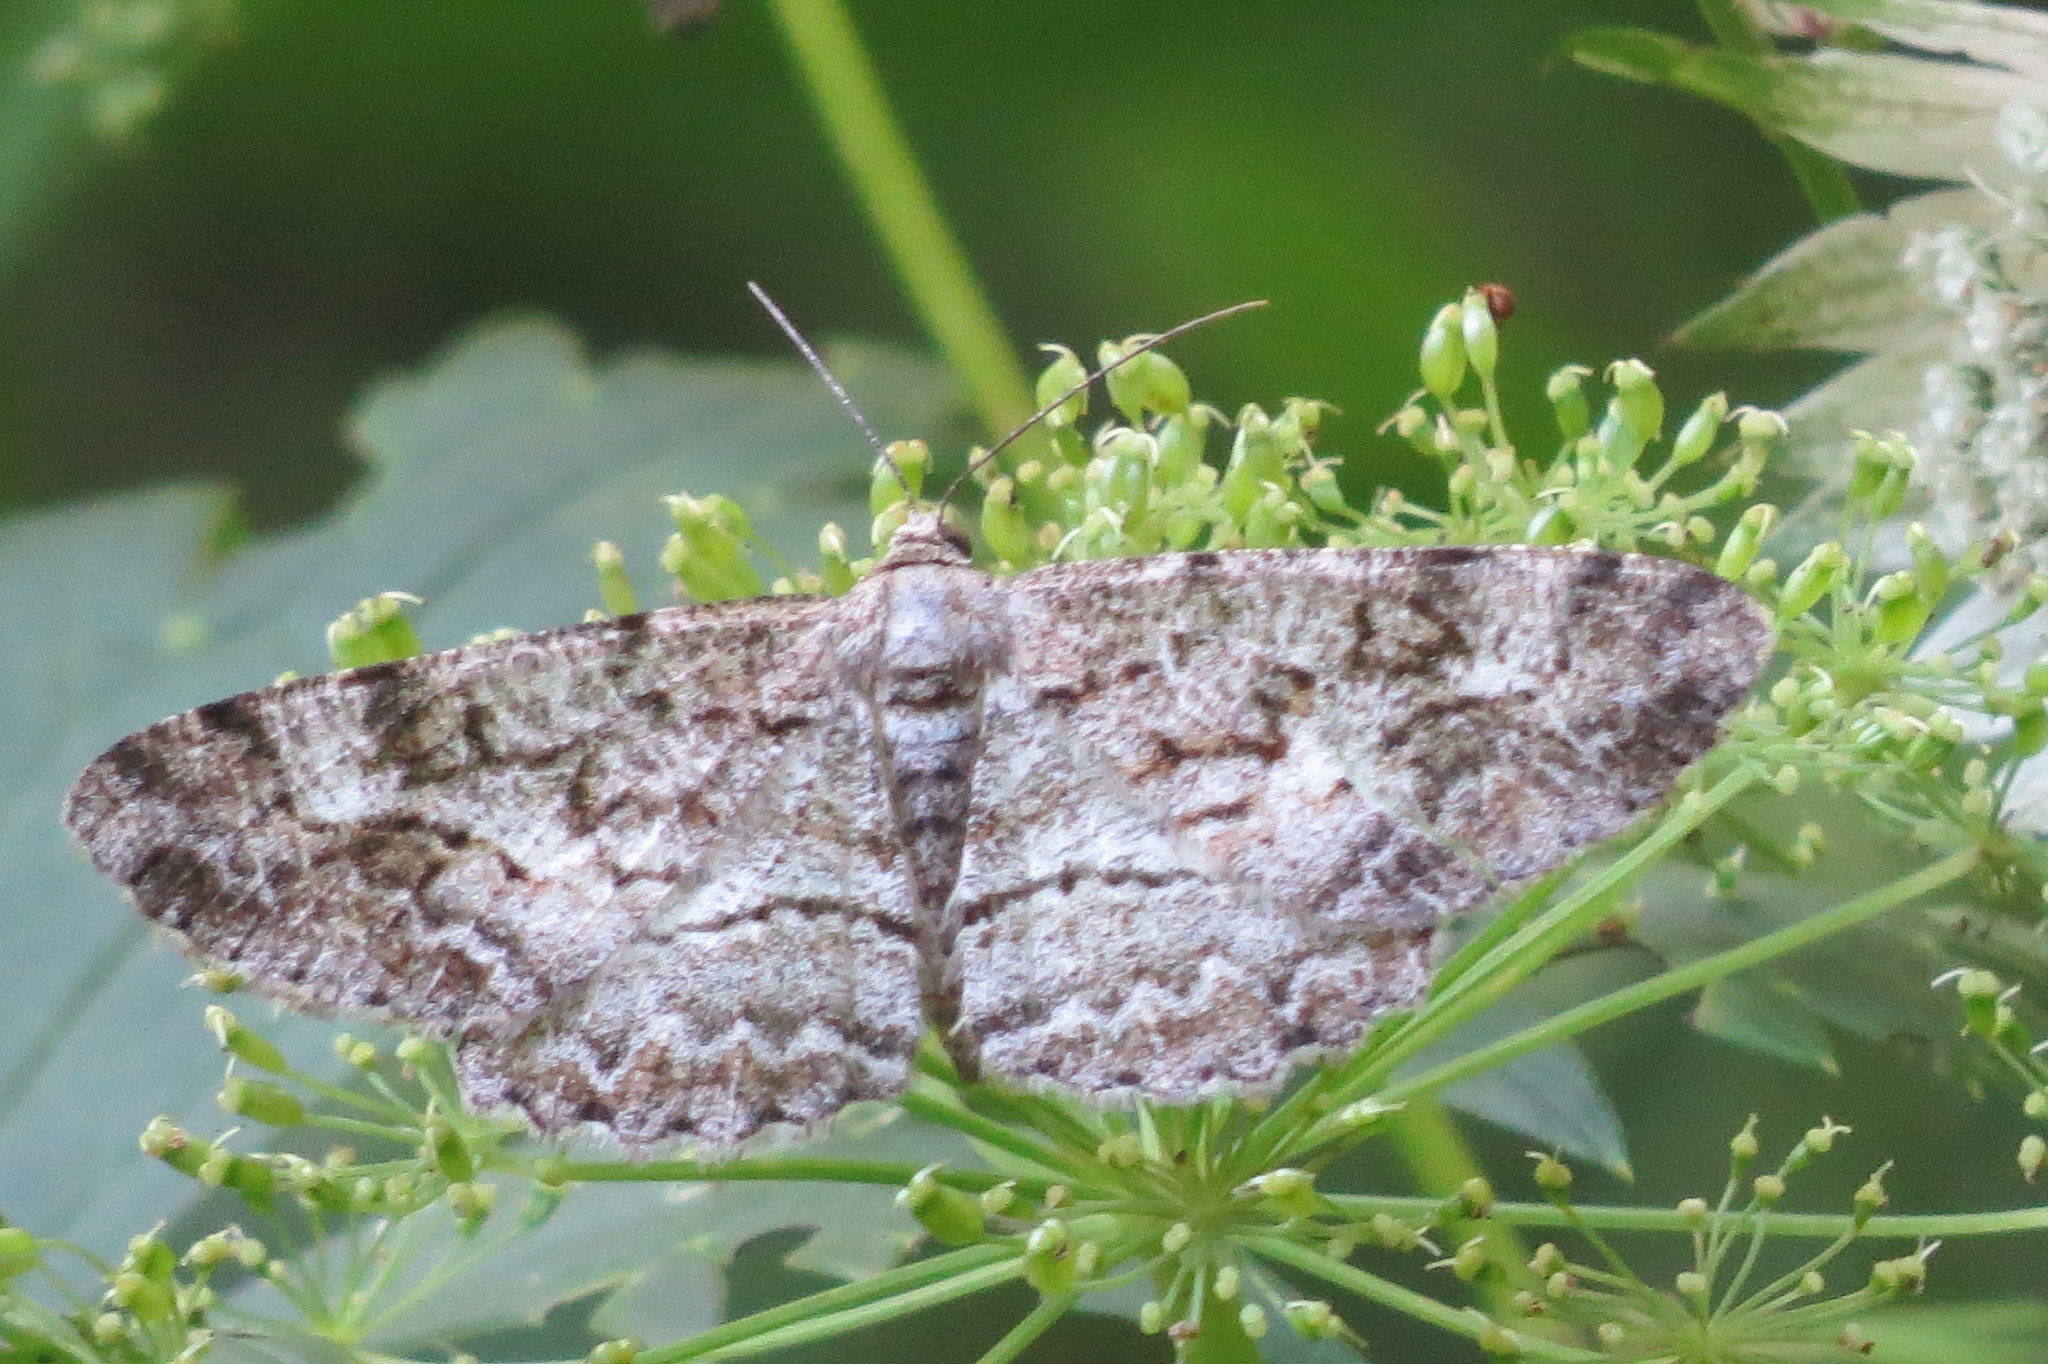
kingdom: Animalia
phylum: Arthropoda
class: Insecta
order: Lepidoptera
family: Geometridae
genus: Alcis
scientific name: Alcis repandata
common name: Mottled beauty
